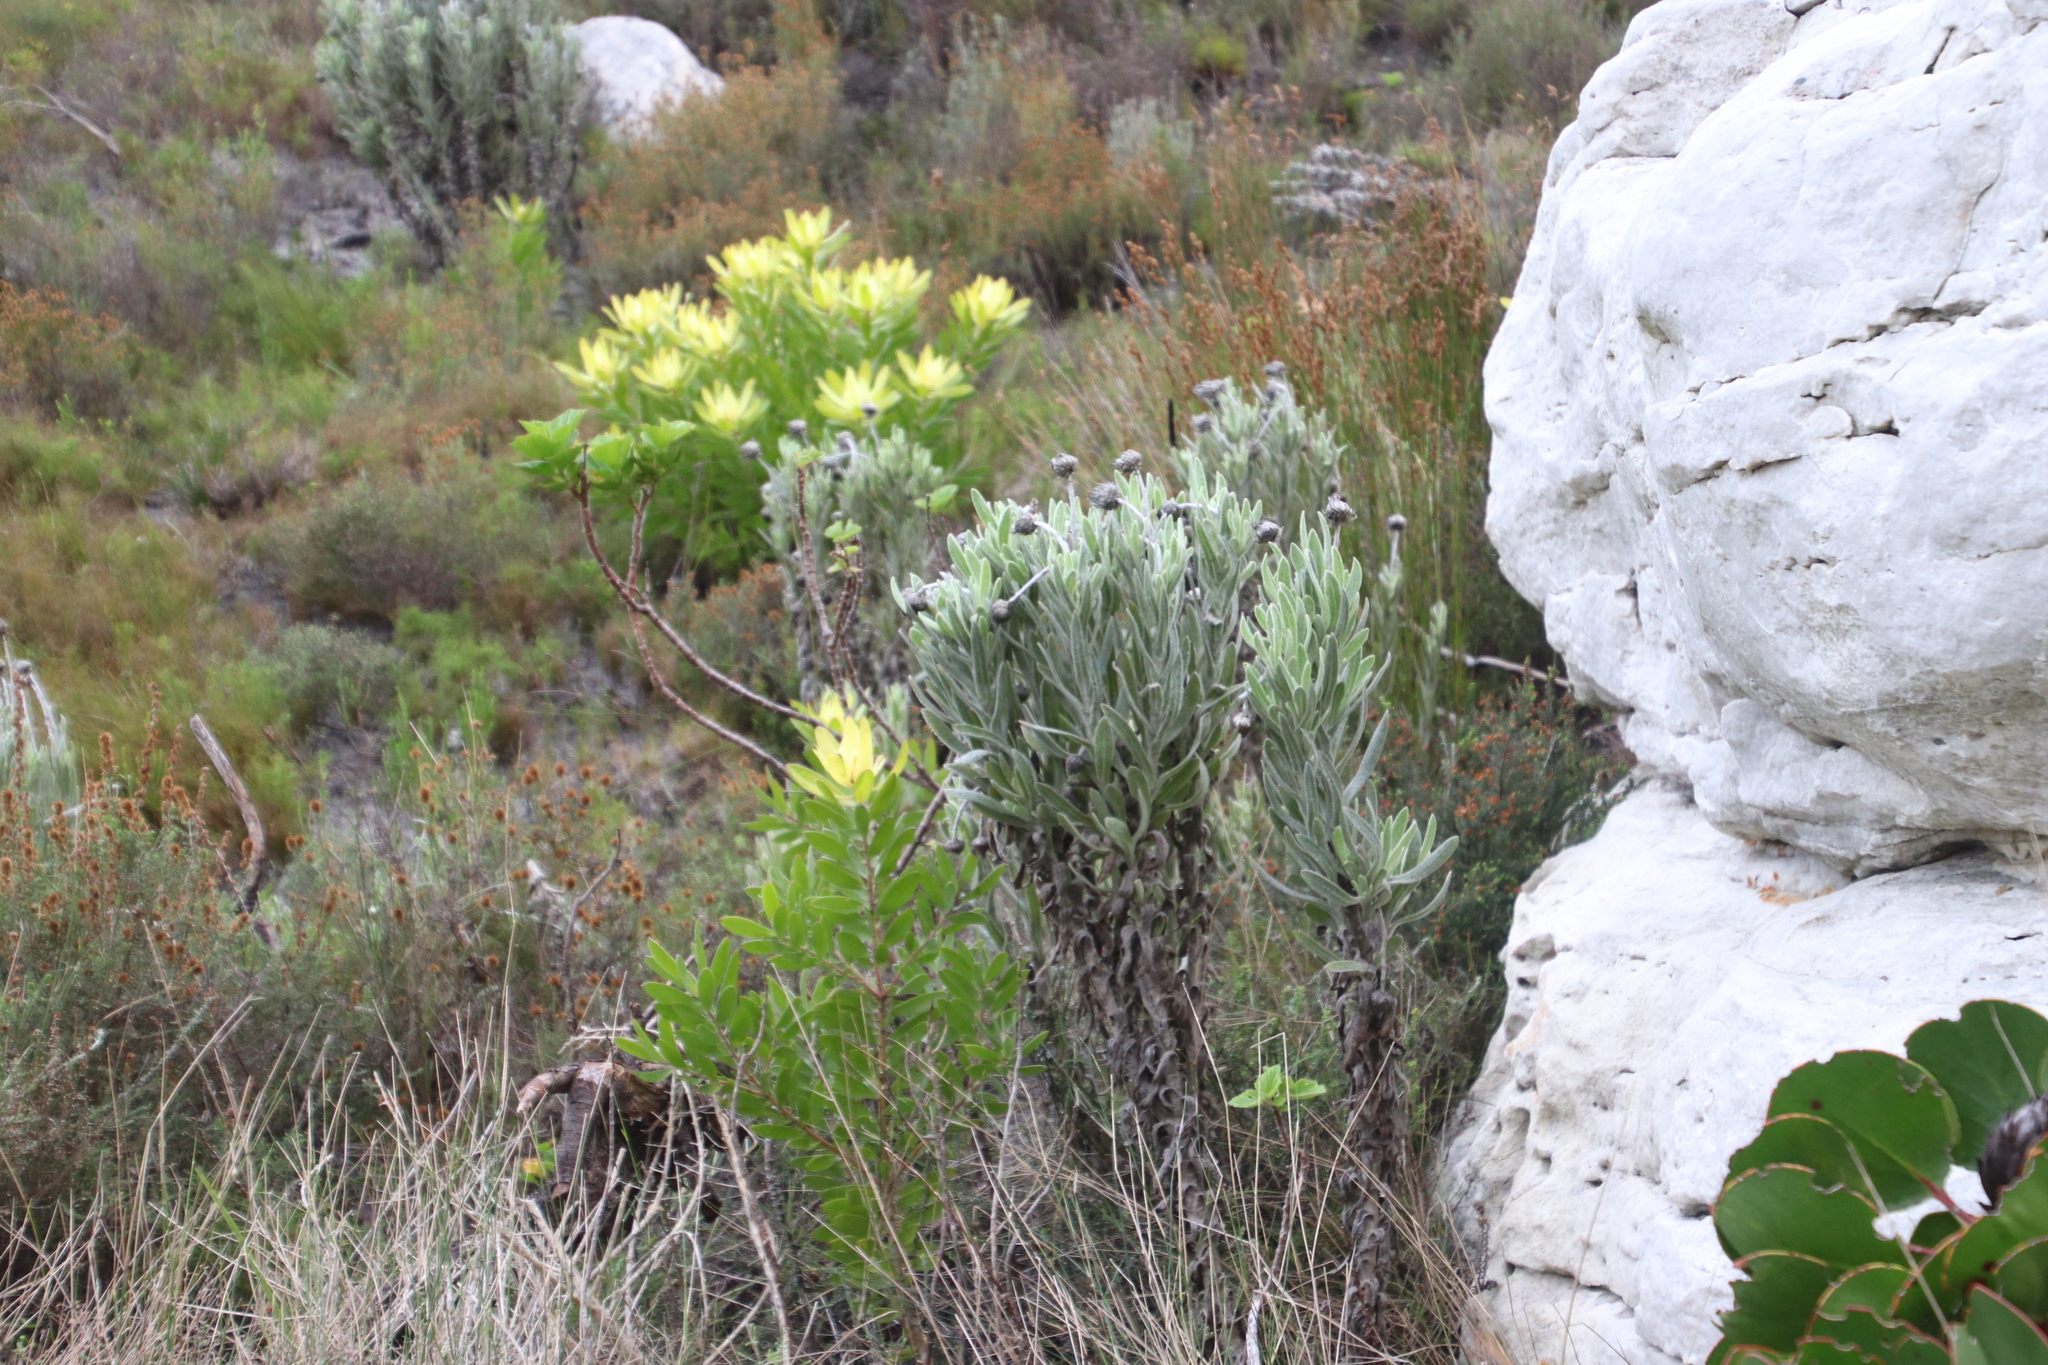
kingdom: Plantae
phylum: Tracheophyta
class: Magnoliopsida
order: Asterales
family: Asteraceae
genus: Syncarpha
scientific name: Syncarpha vestita
